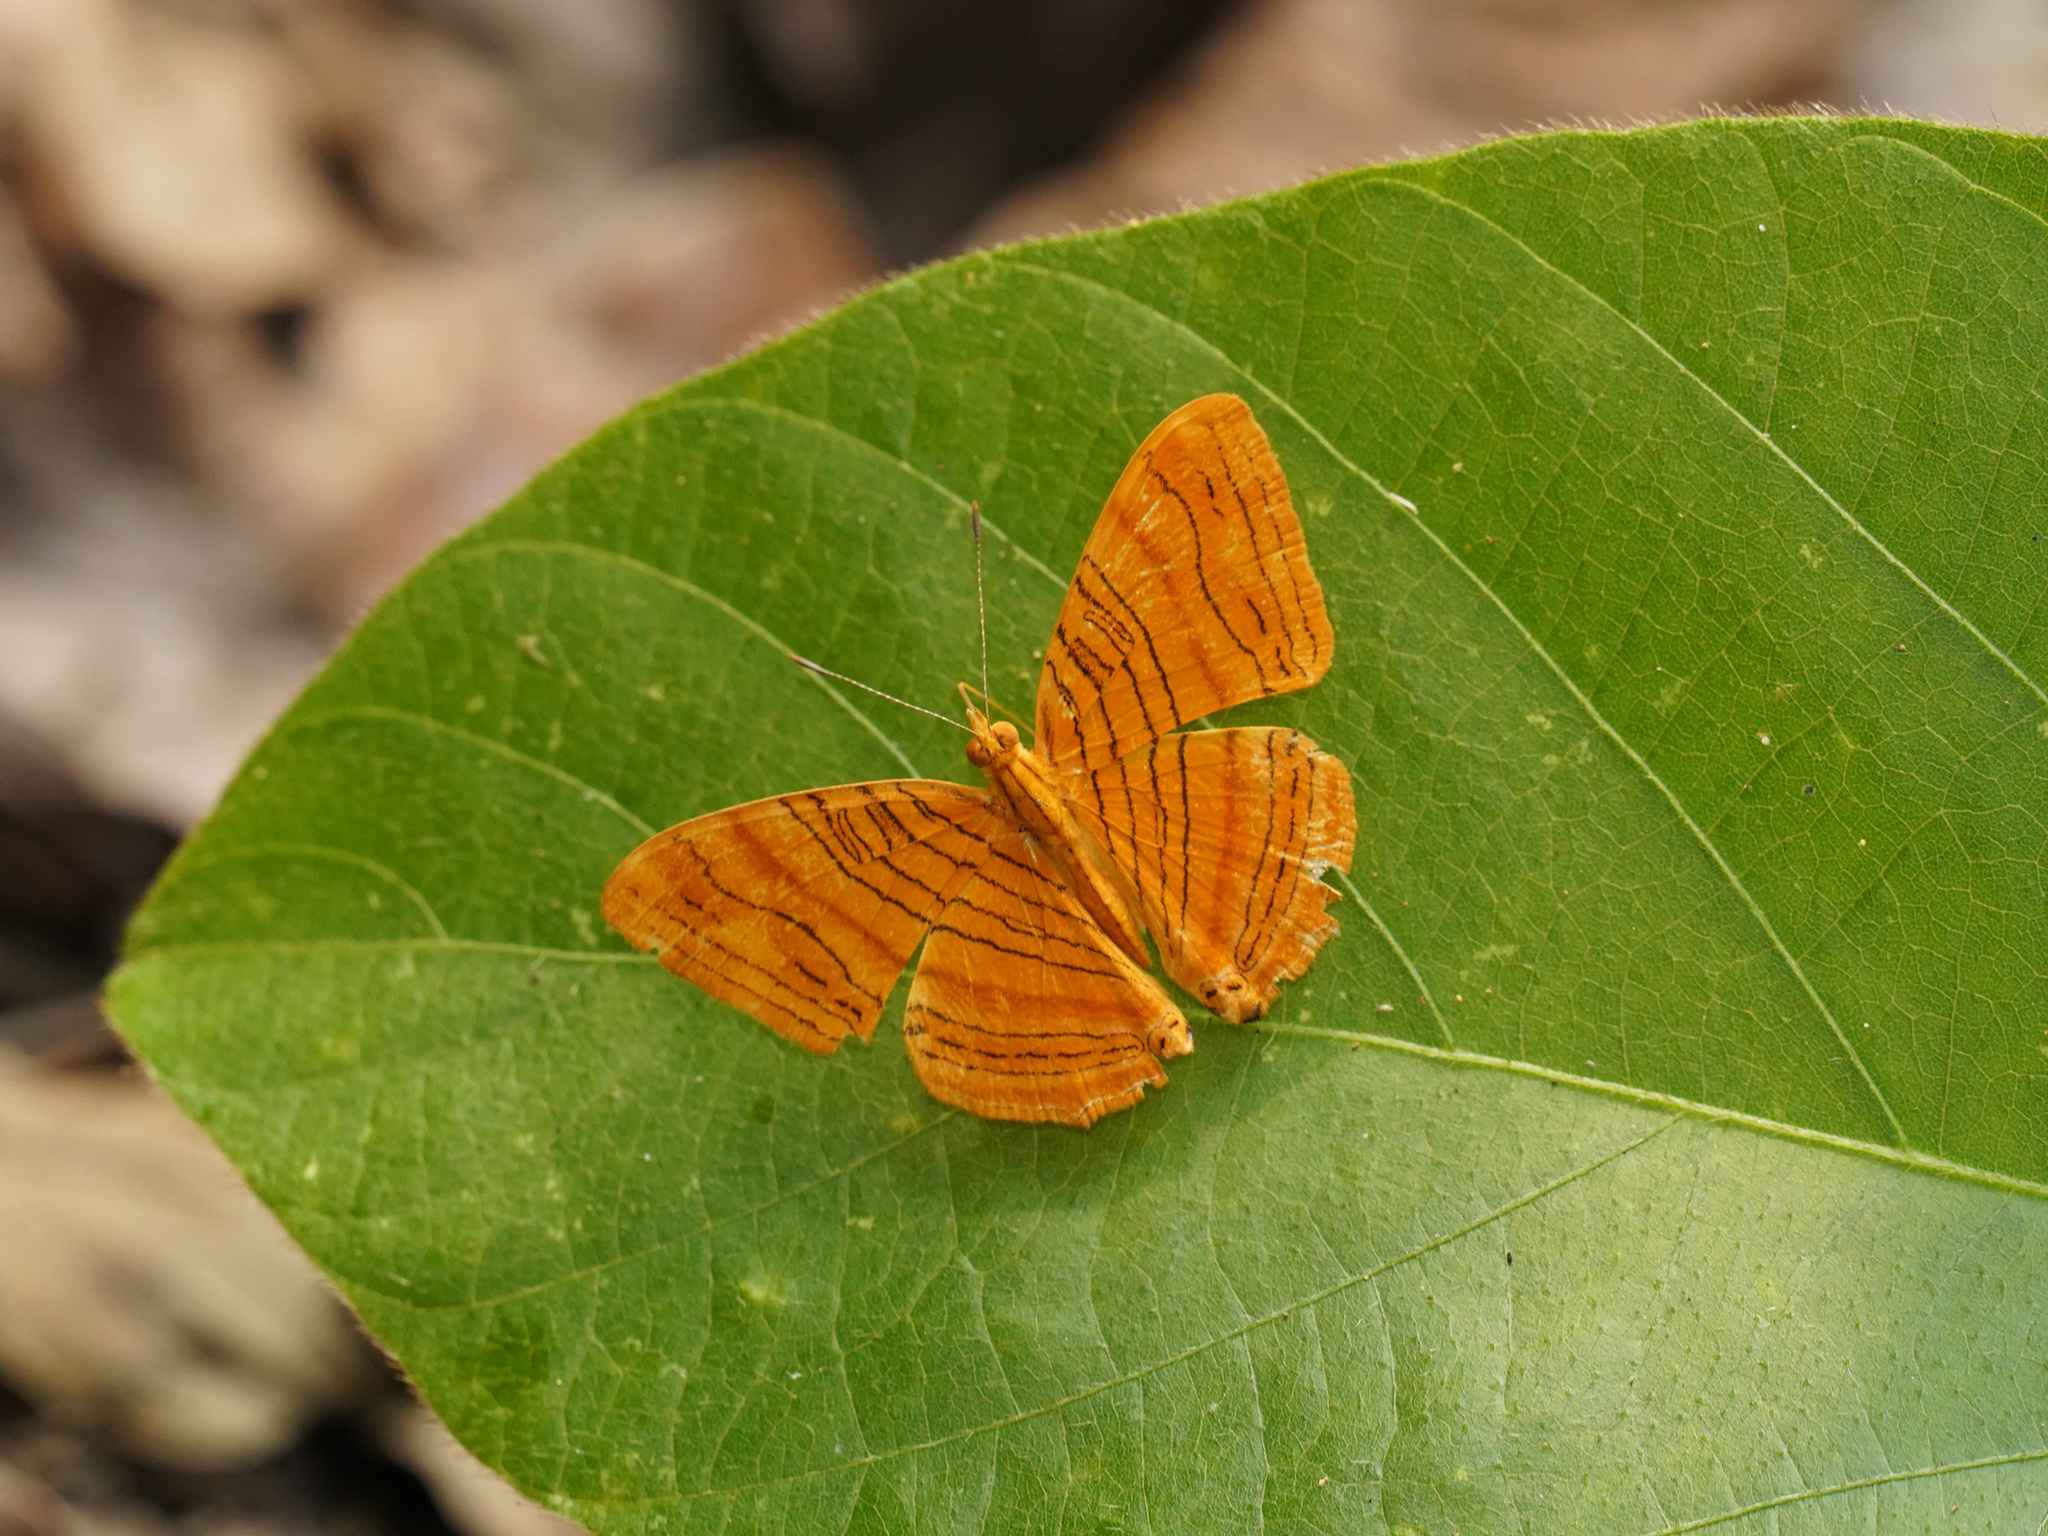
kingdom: Animalia
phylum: Arthropoda
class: Insecta
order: Lepidoptera
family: Nymphalidae
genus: Chersonesia
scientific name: Chersonesia intermedia
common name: Intermediate maplet
